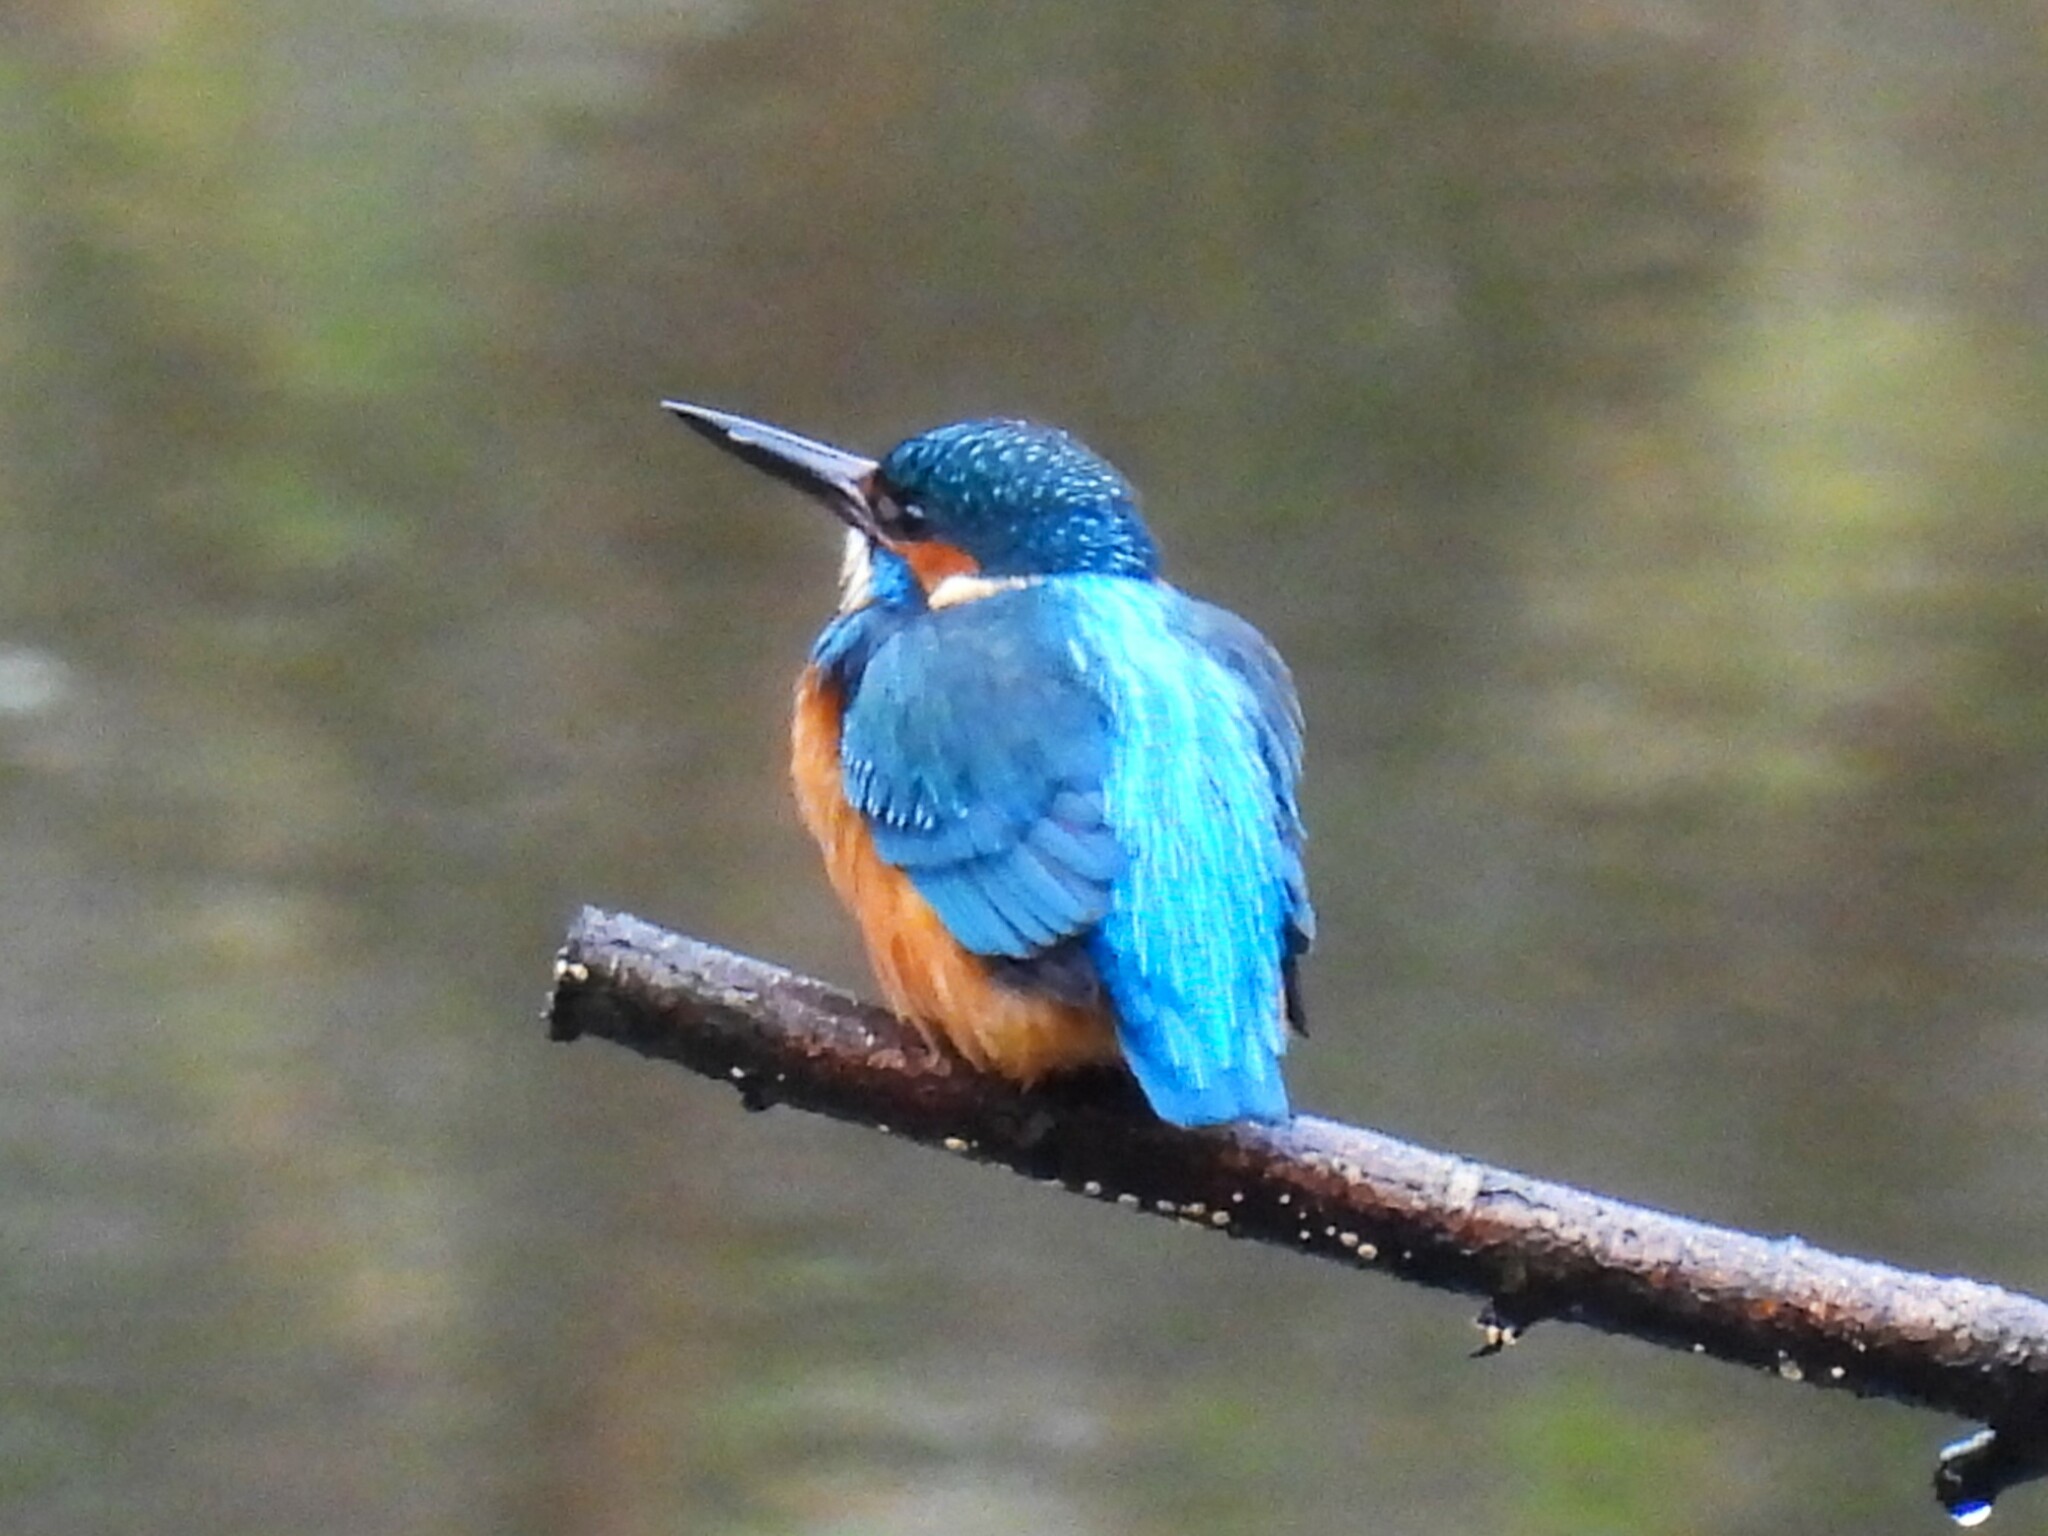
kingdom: Animalia
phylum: Chordata
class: Aves
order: Coraciiformes
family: Alcedinidae
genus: Alcedo
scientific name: Alcedo atthis
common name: Common kingfisher
